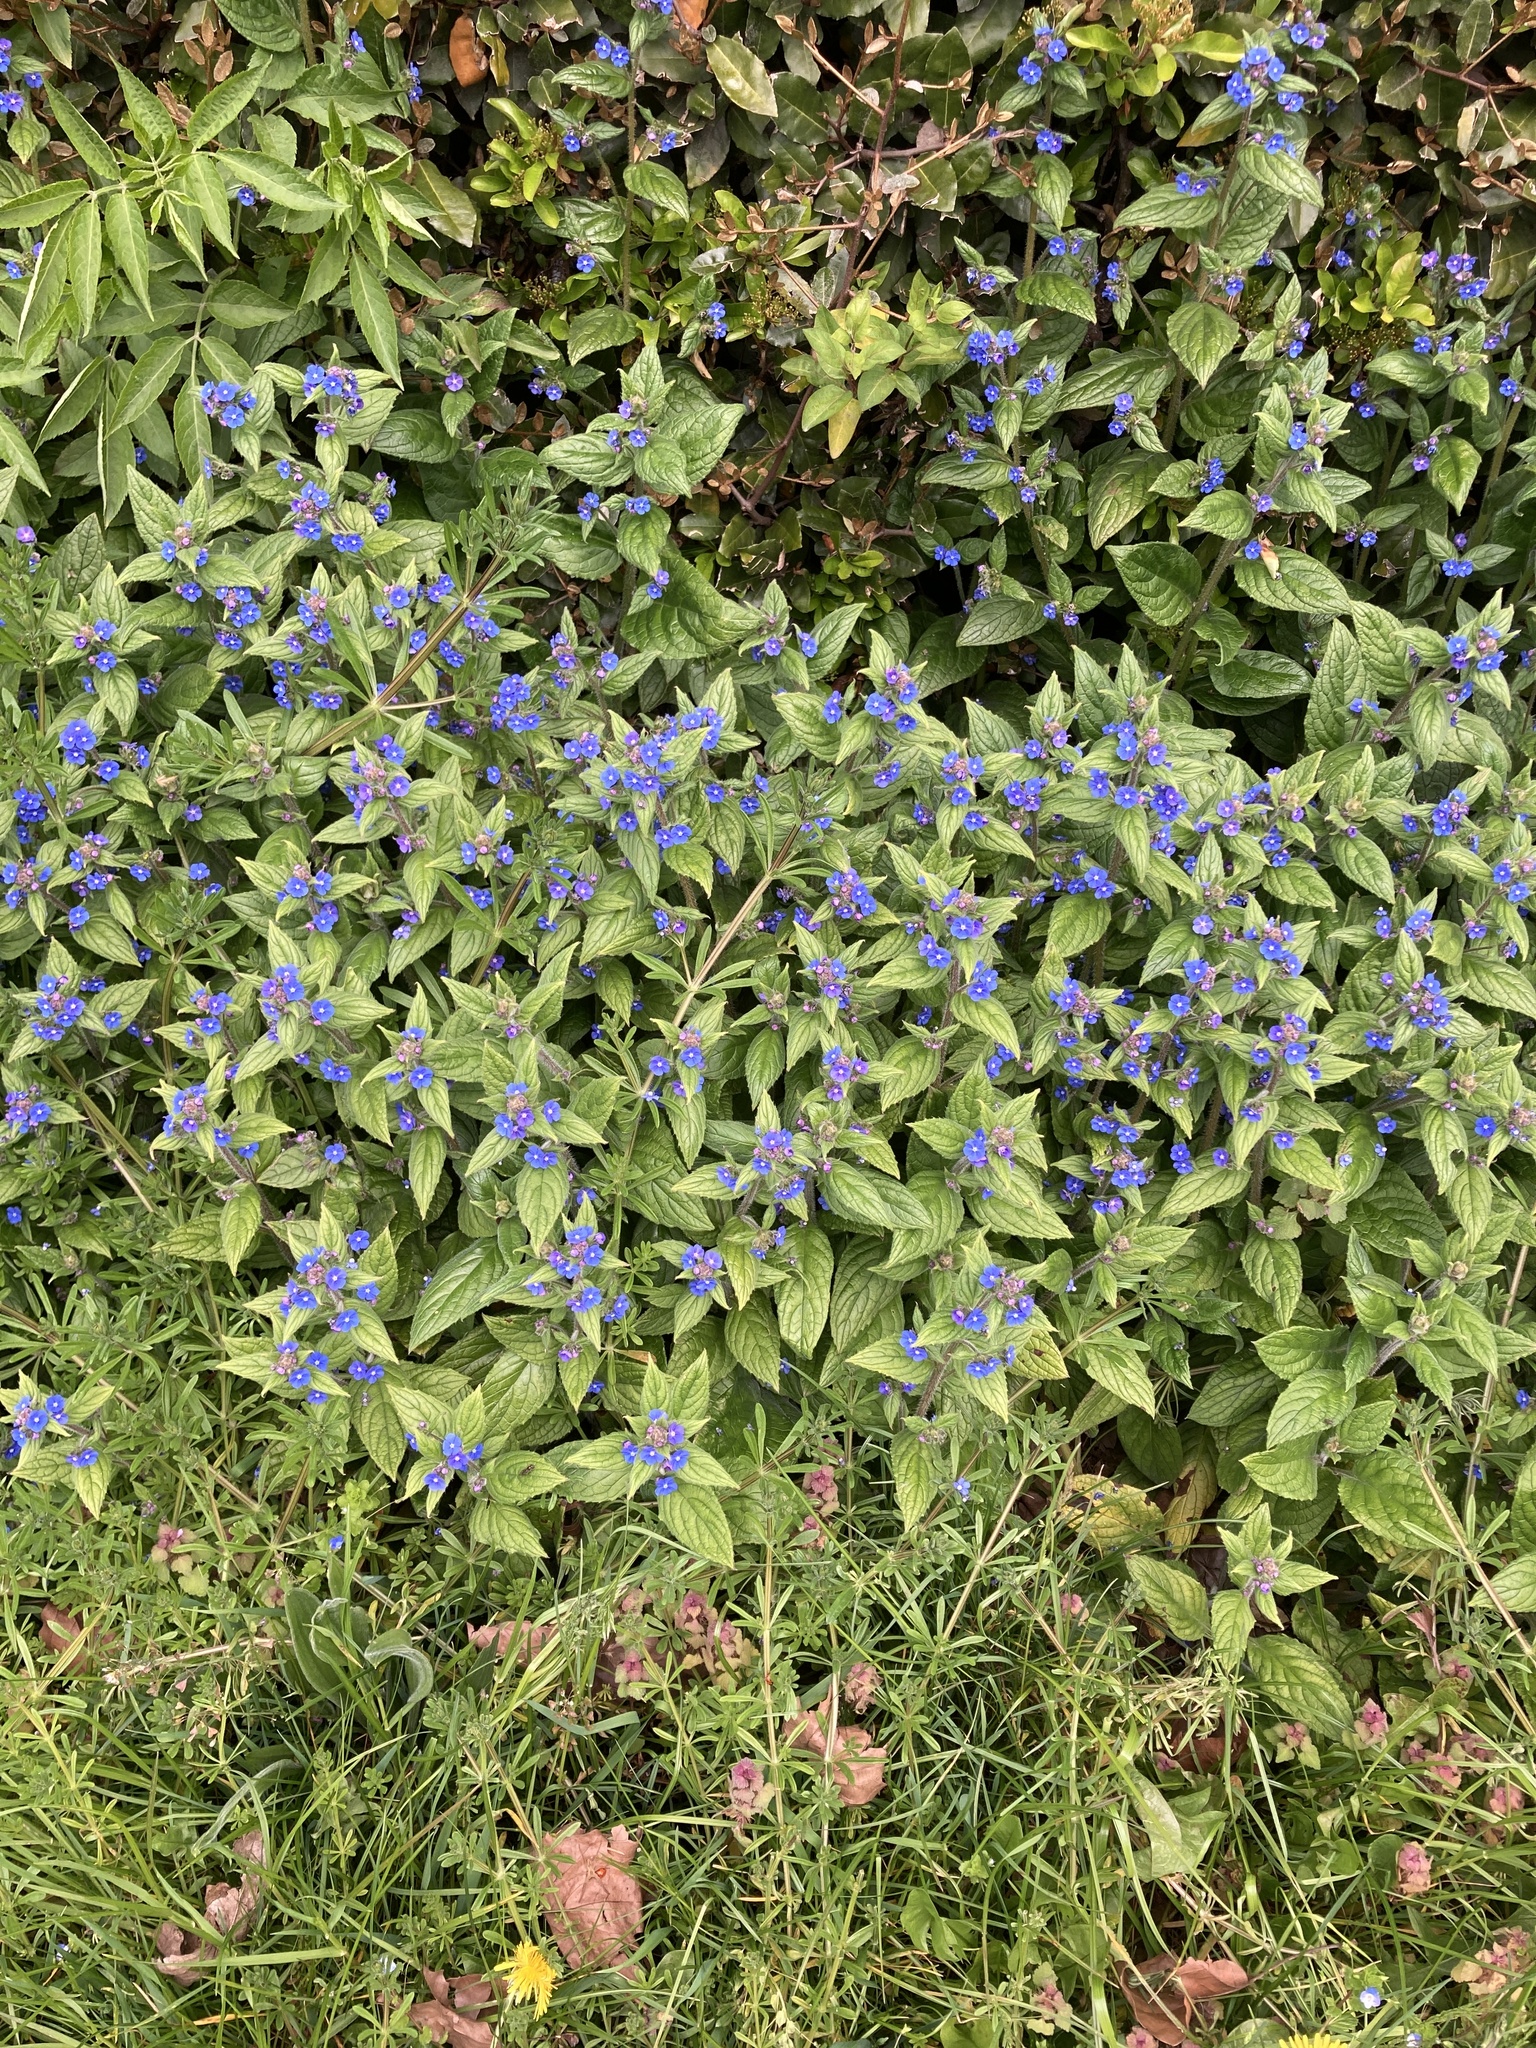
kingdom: Plantae
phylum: Tracheophyta
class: Magnoliopsida
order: Boraginales
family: Boraginaceae
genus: Pentaglottis
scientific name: Pentaglottis sempervirens
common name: Green alkanet
